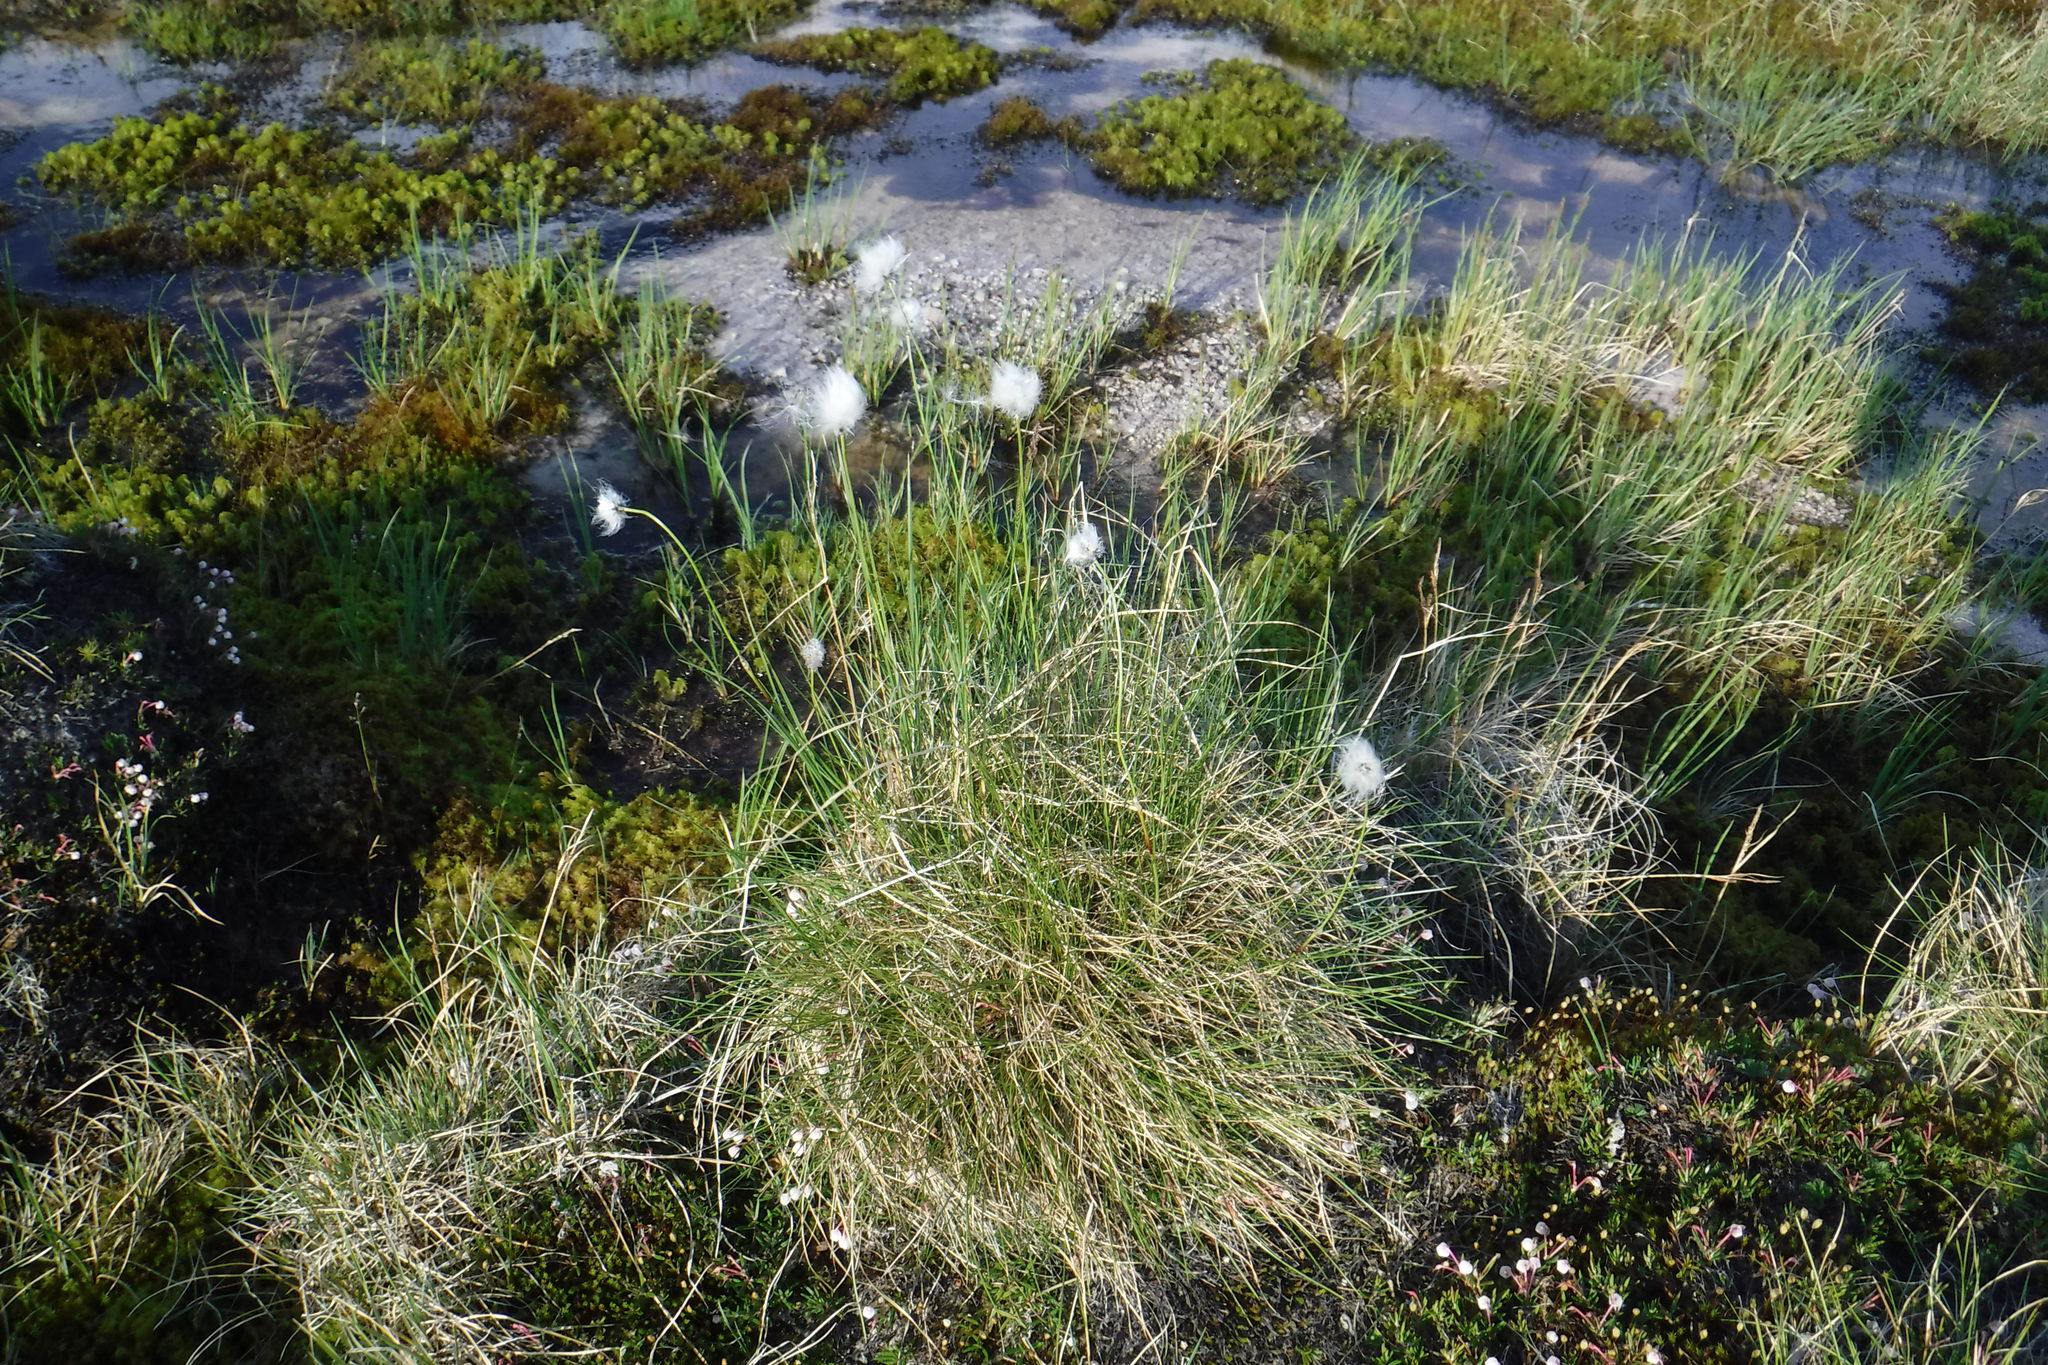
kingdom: Plantae
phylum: Tracheophyta
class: Liliopsida
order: Poales
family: Cyperaceae
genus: Eriophorum
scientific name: Eriophorum vaginatum
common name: Hare's-tail cottongrass
